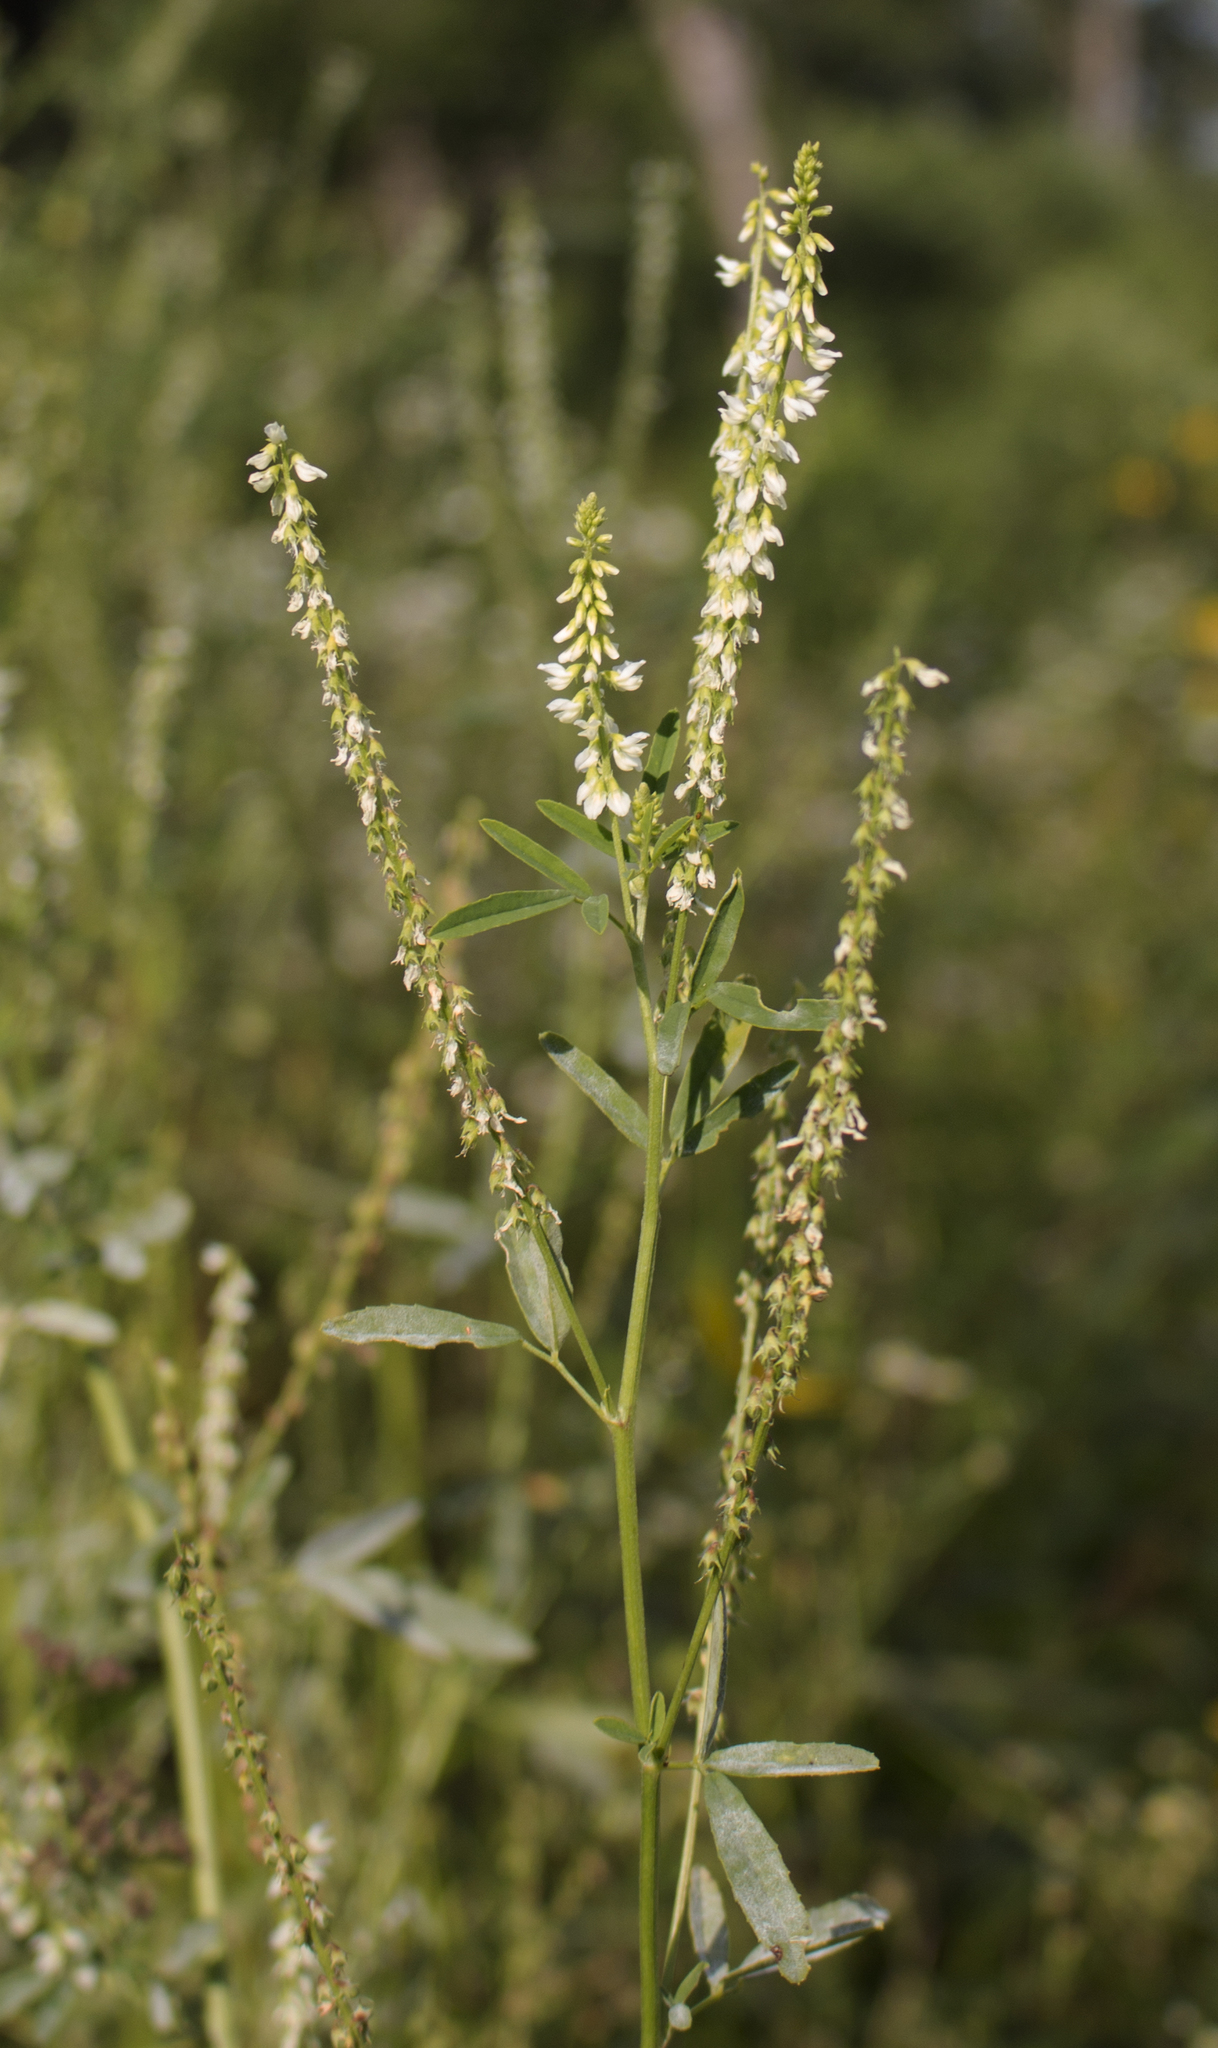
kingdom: Plantae
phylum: Tracheophyta
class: Magnoliopsida
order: Fabales
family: Fabaceae
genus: Melilotus
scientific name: Melilotus albus
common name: White melilot
